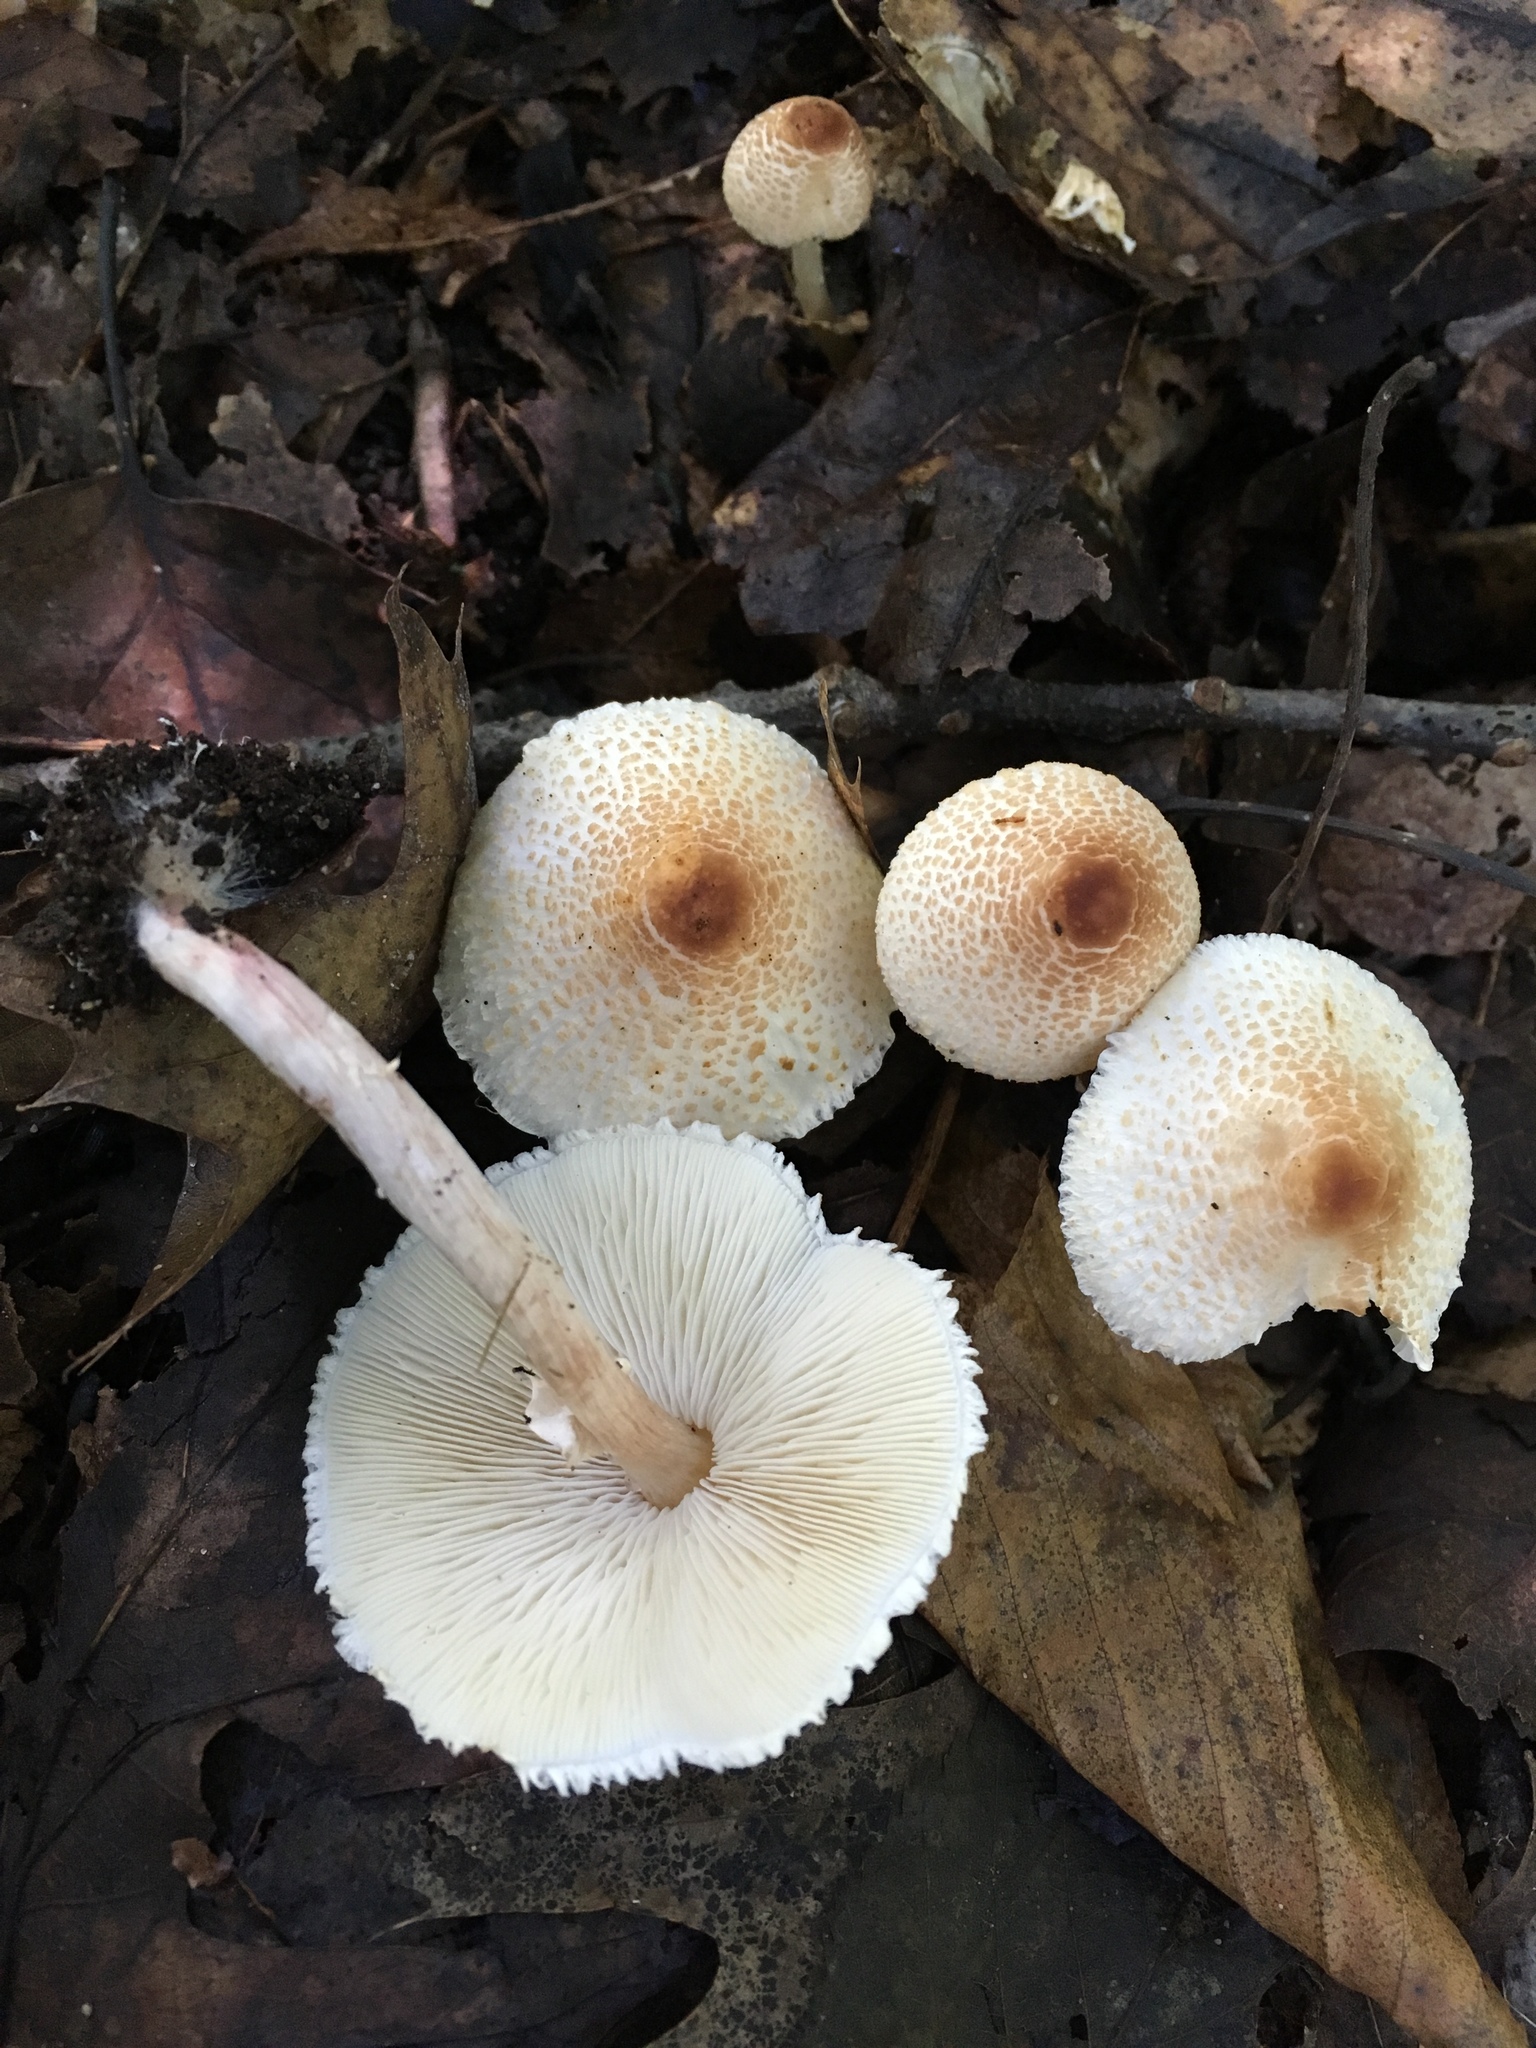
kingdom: Fungi
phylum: Basidiomycota
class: Agaricomycetes
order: Agaricales
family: Agaricaceae
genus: Lepiota
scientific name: Lepiota cristata
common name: Stinking dapperling
